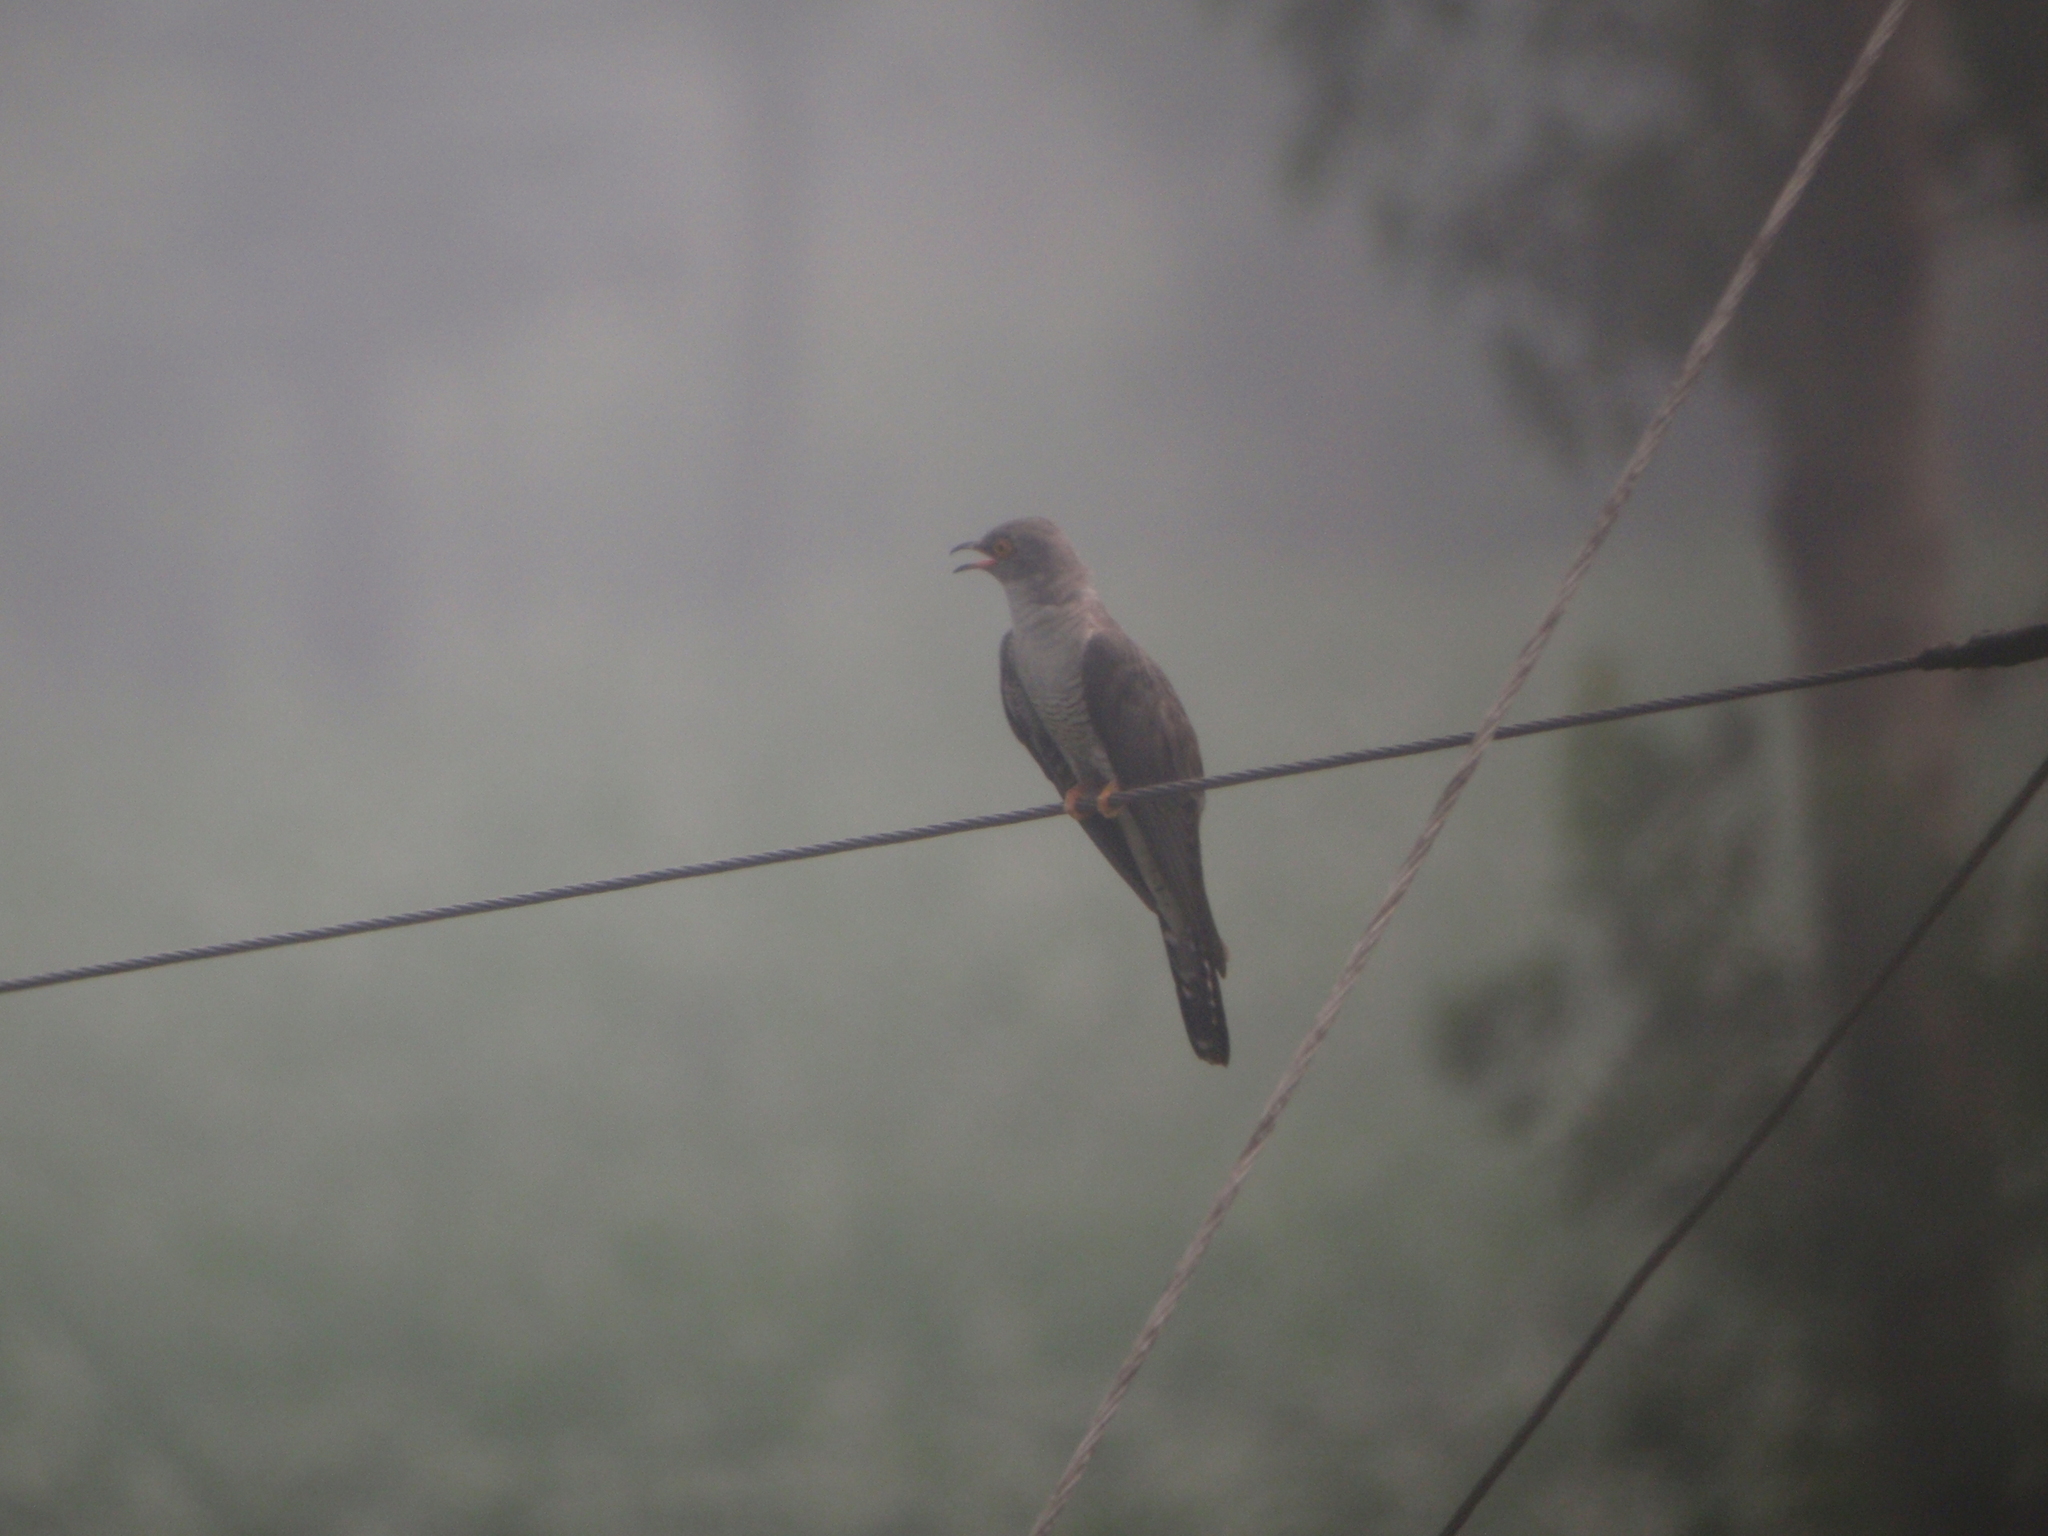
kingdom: Animalia
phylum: Chordata
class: Aves
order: Cuculiformes
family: Cuculidae
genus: Cuculus
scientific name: Cuculus canorus
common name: Common cuckoo
